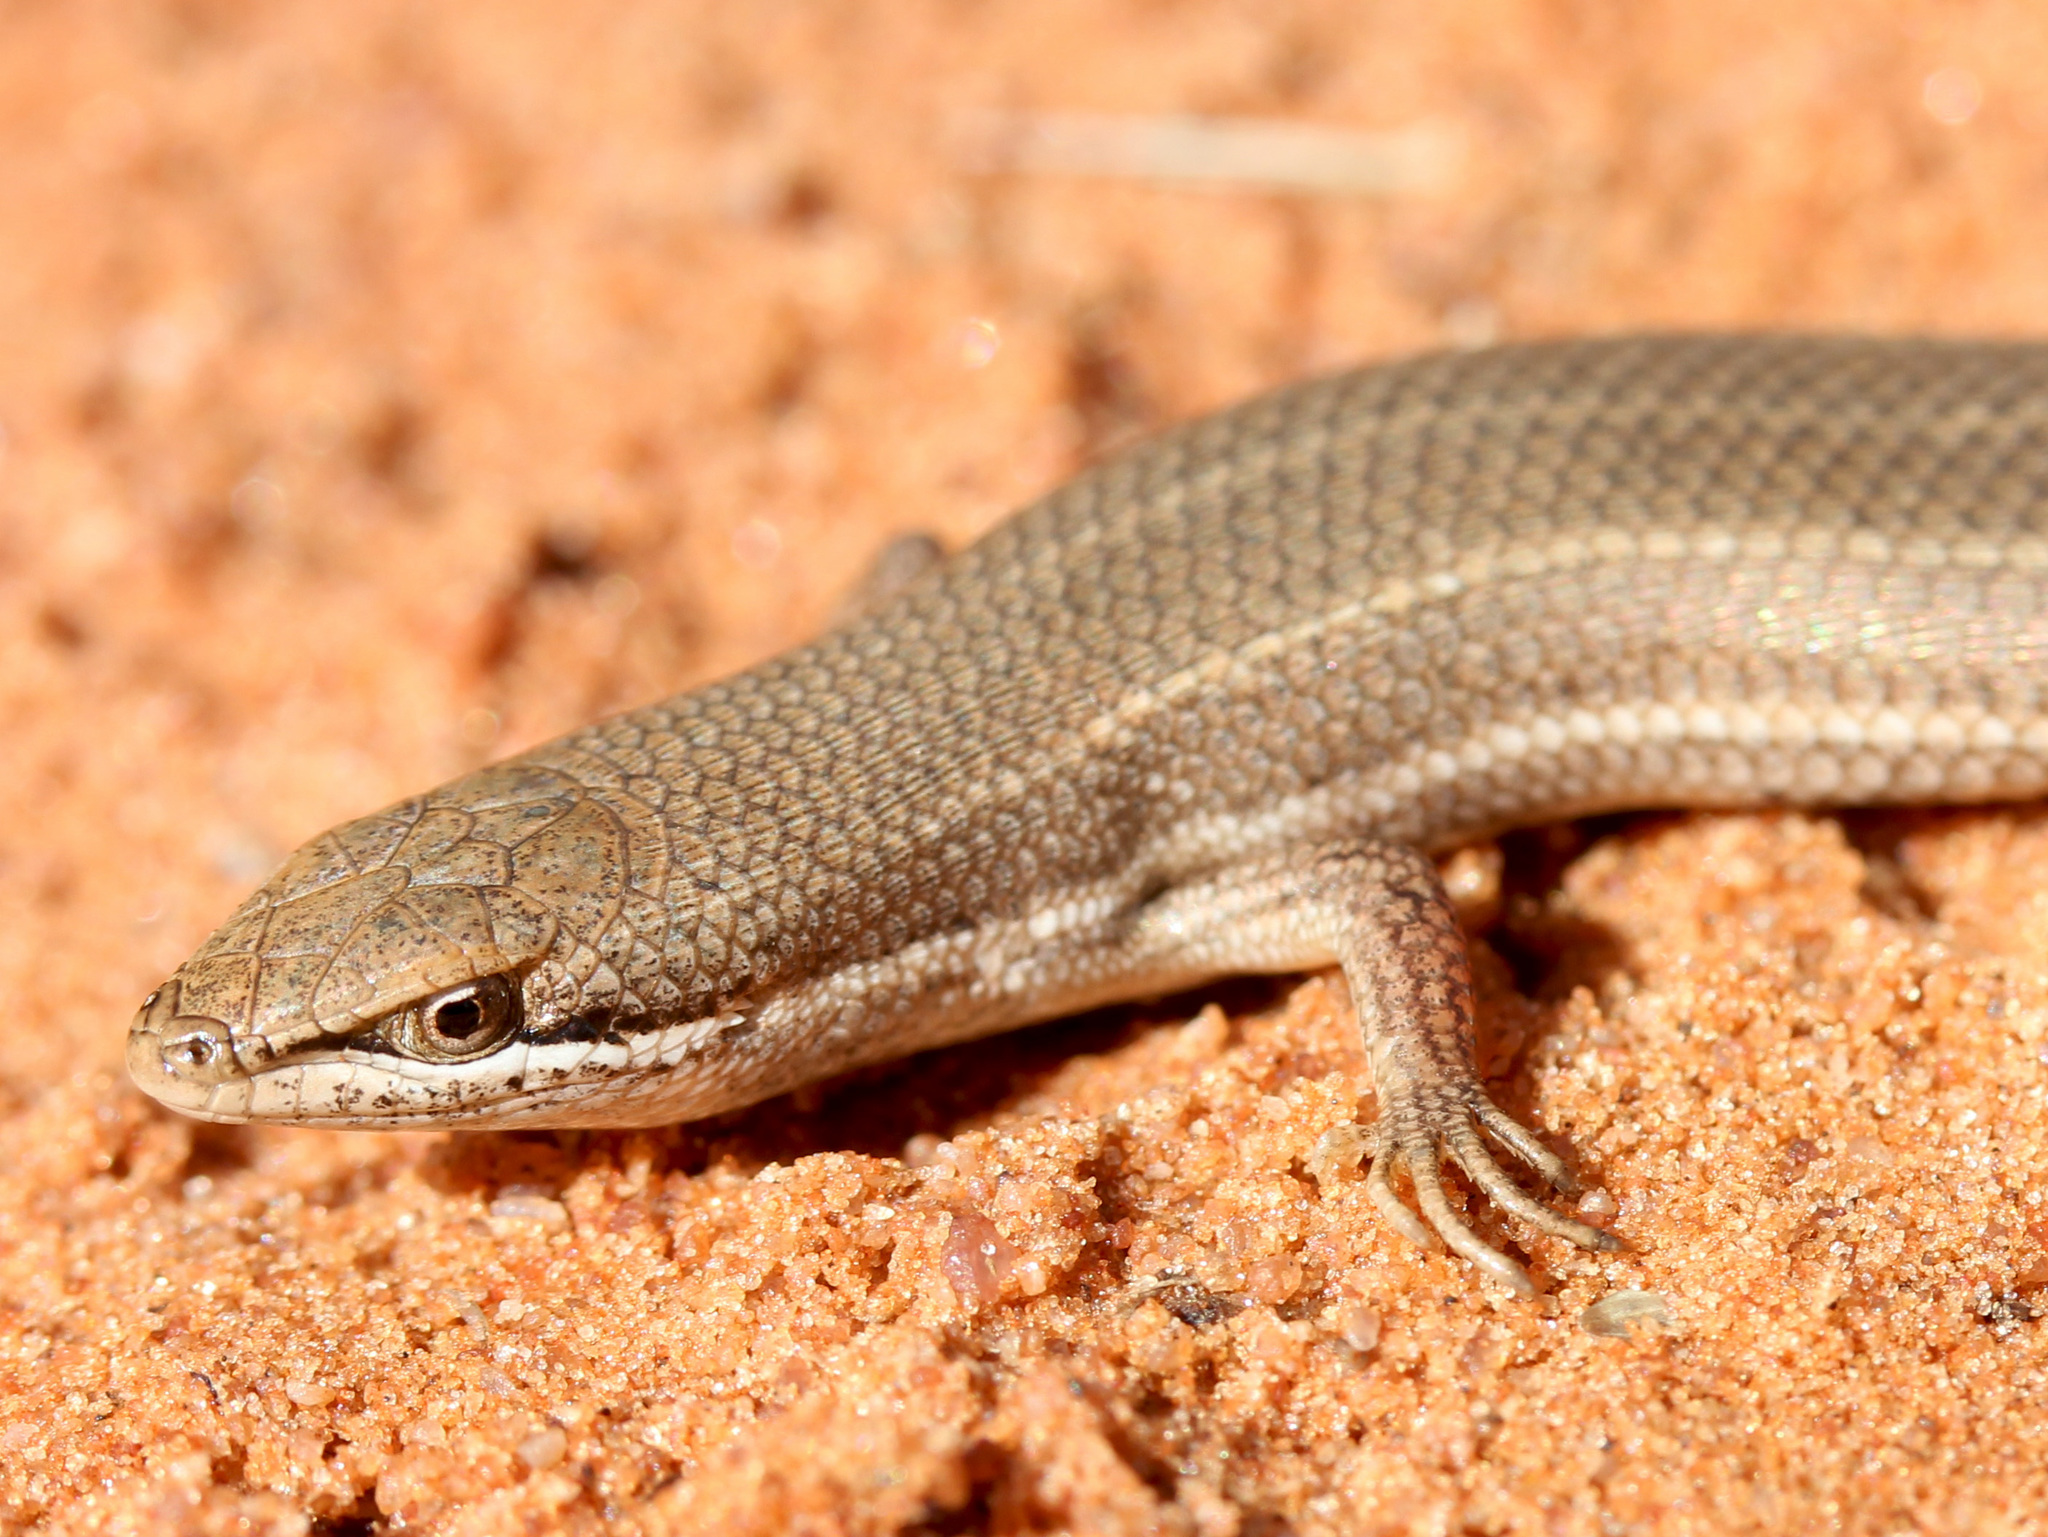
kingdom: Animalia
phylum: Chordata
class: Squamata
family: Scincidae
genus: Trachylepis
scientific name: Trachylepis punctulata
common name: Speckled sand skink
